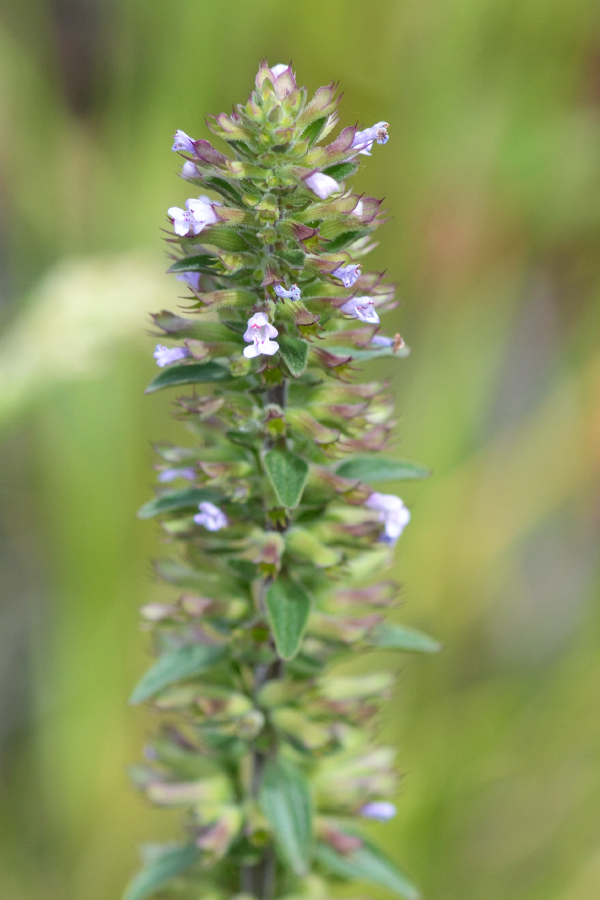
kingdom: Plantae
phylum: Tracheophyta
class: Magnoliopsida
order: Lamiales
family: Lamiaceae
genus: Dracocephalum
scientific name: Dracocephalum thymiflorum
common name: Thymeleaf dragonhead
